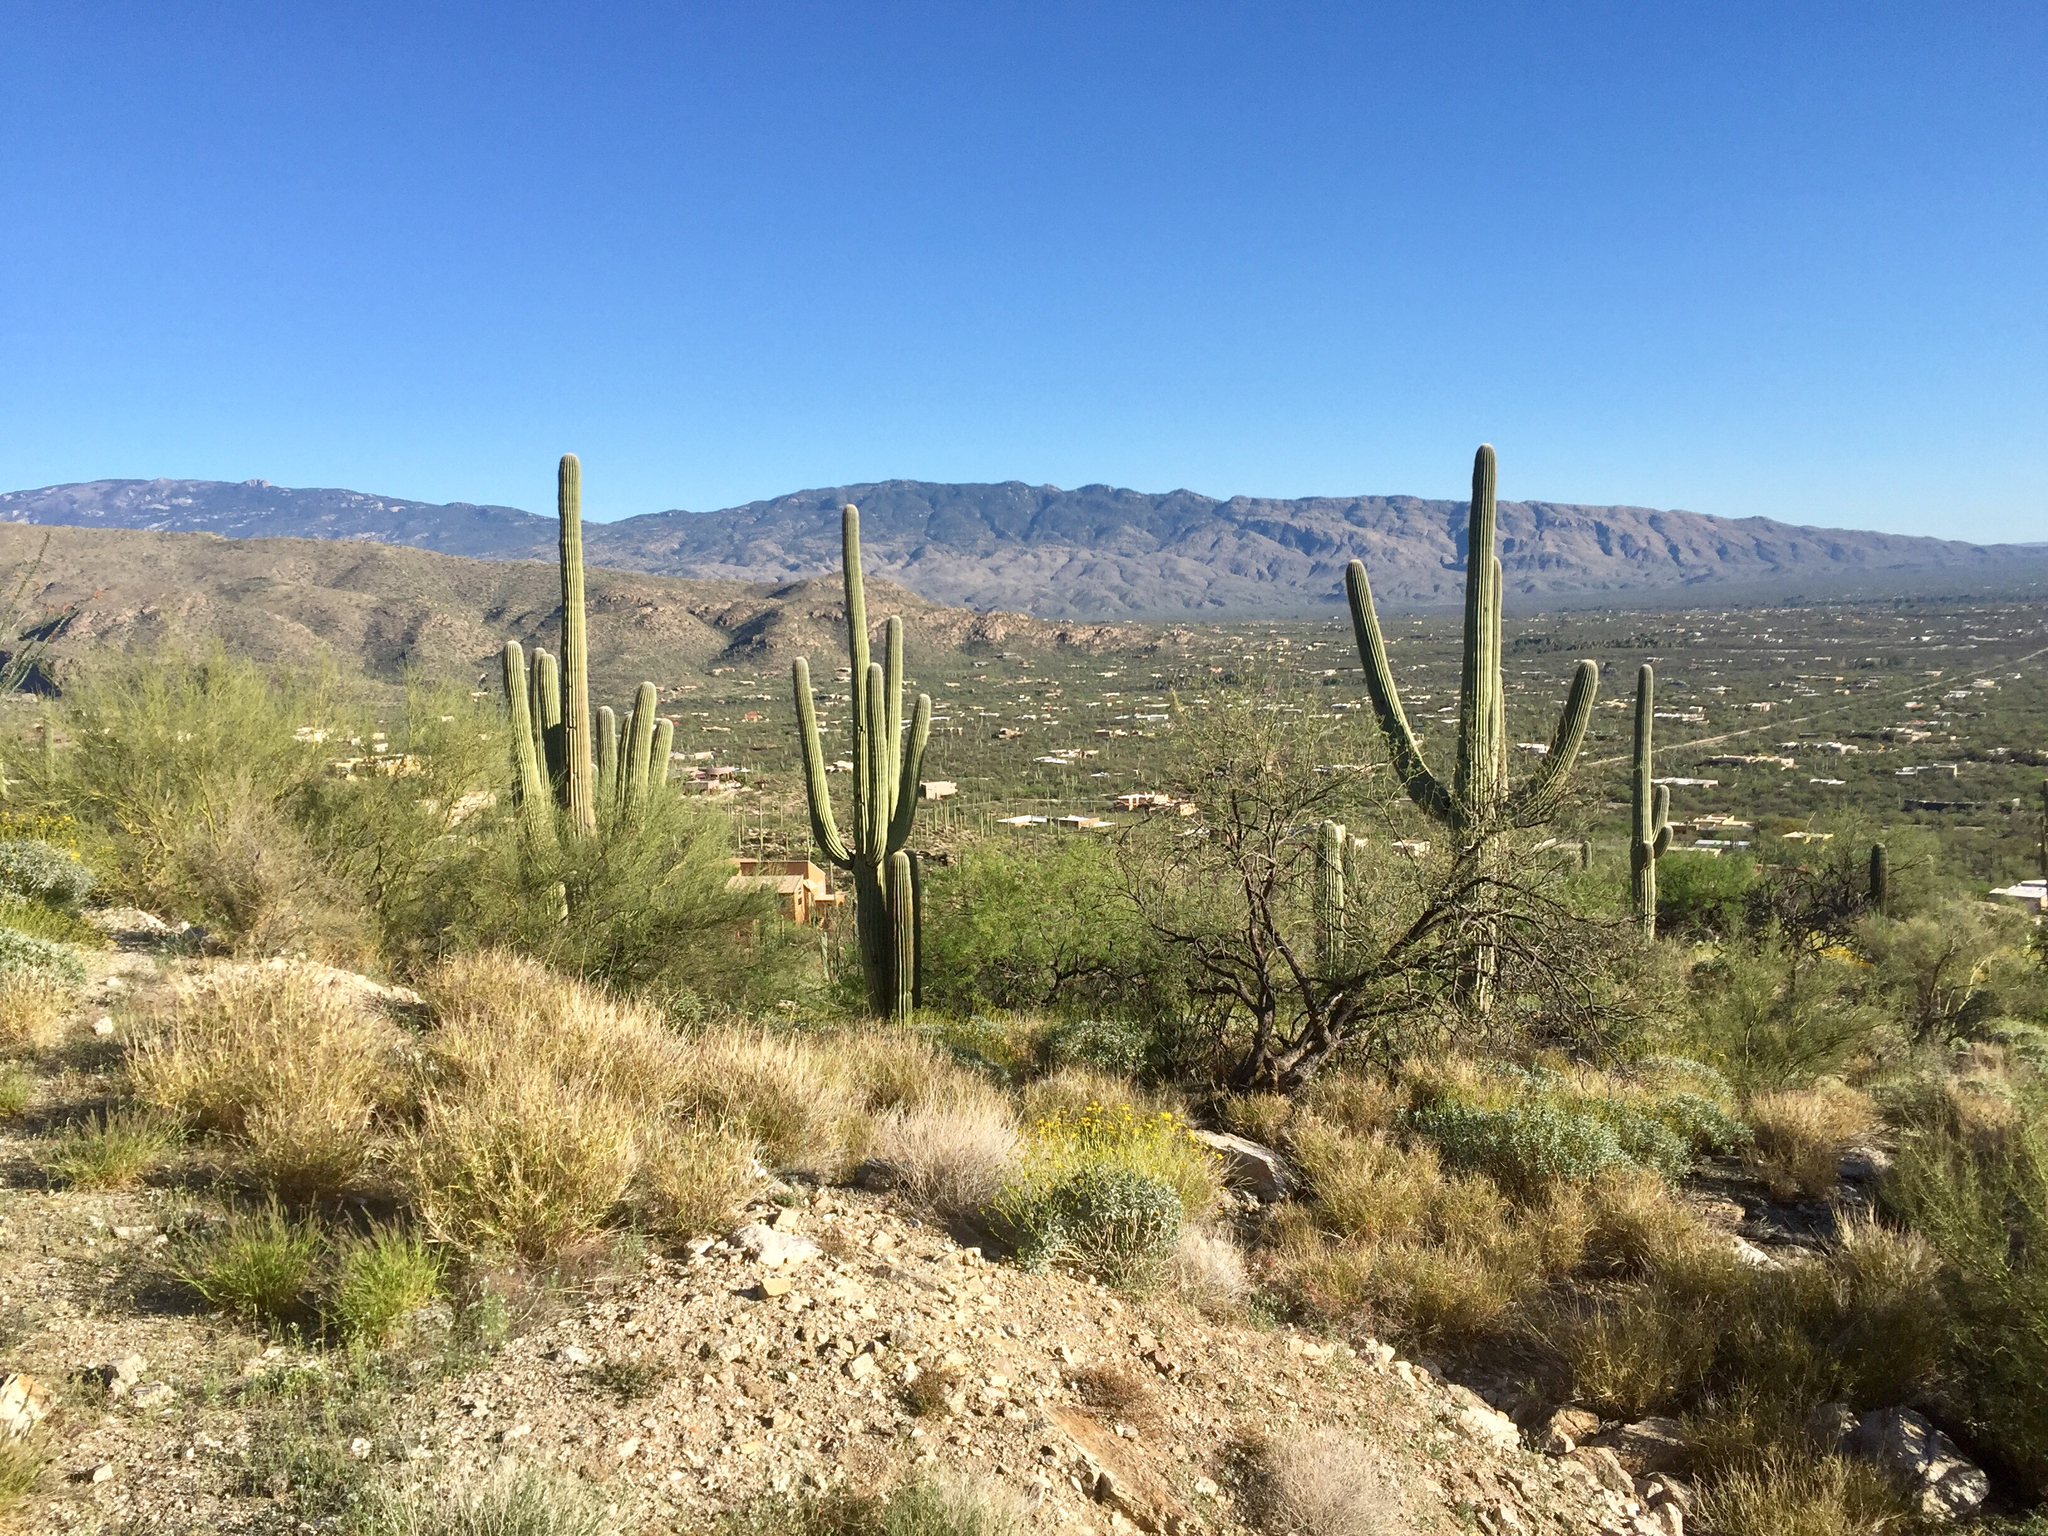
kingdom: Plantae
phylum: Tracheophyta
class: Magnoliopsida
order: Caryophyllales
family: Cactaceae
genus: Carnegiea
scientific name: Carnegiea gigantea
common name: Saguaro
